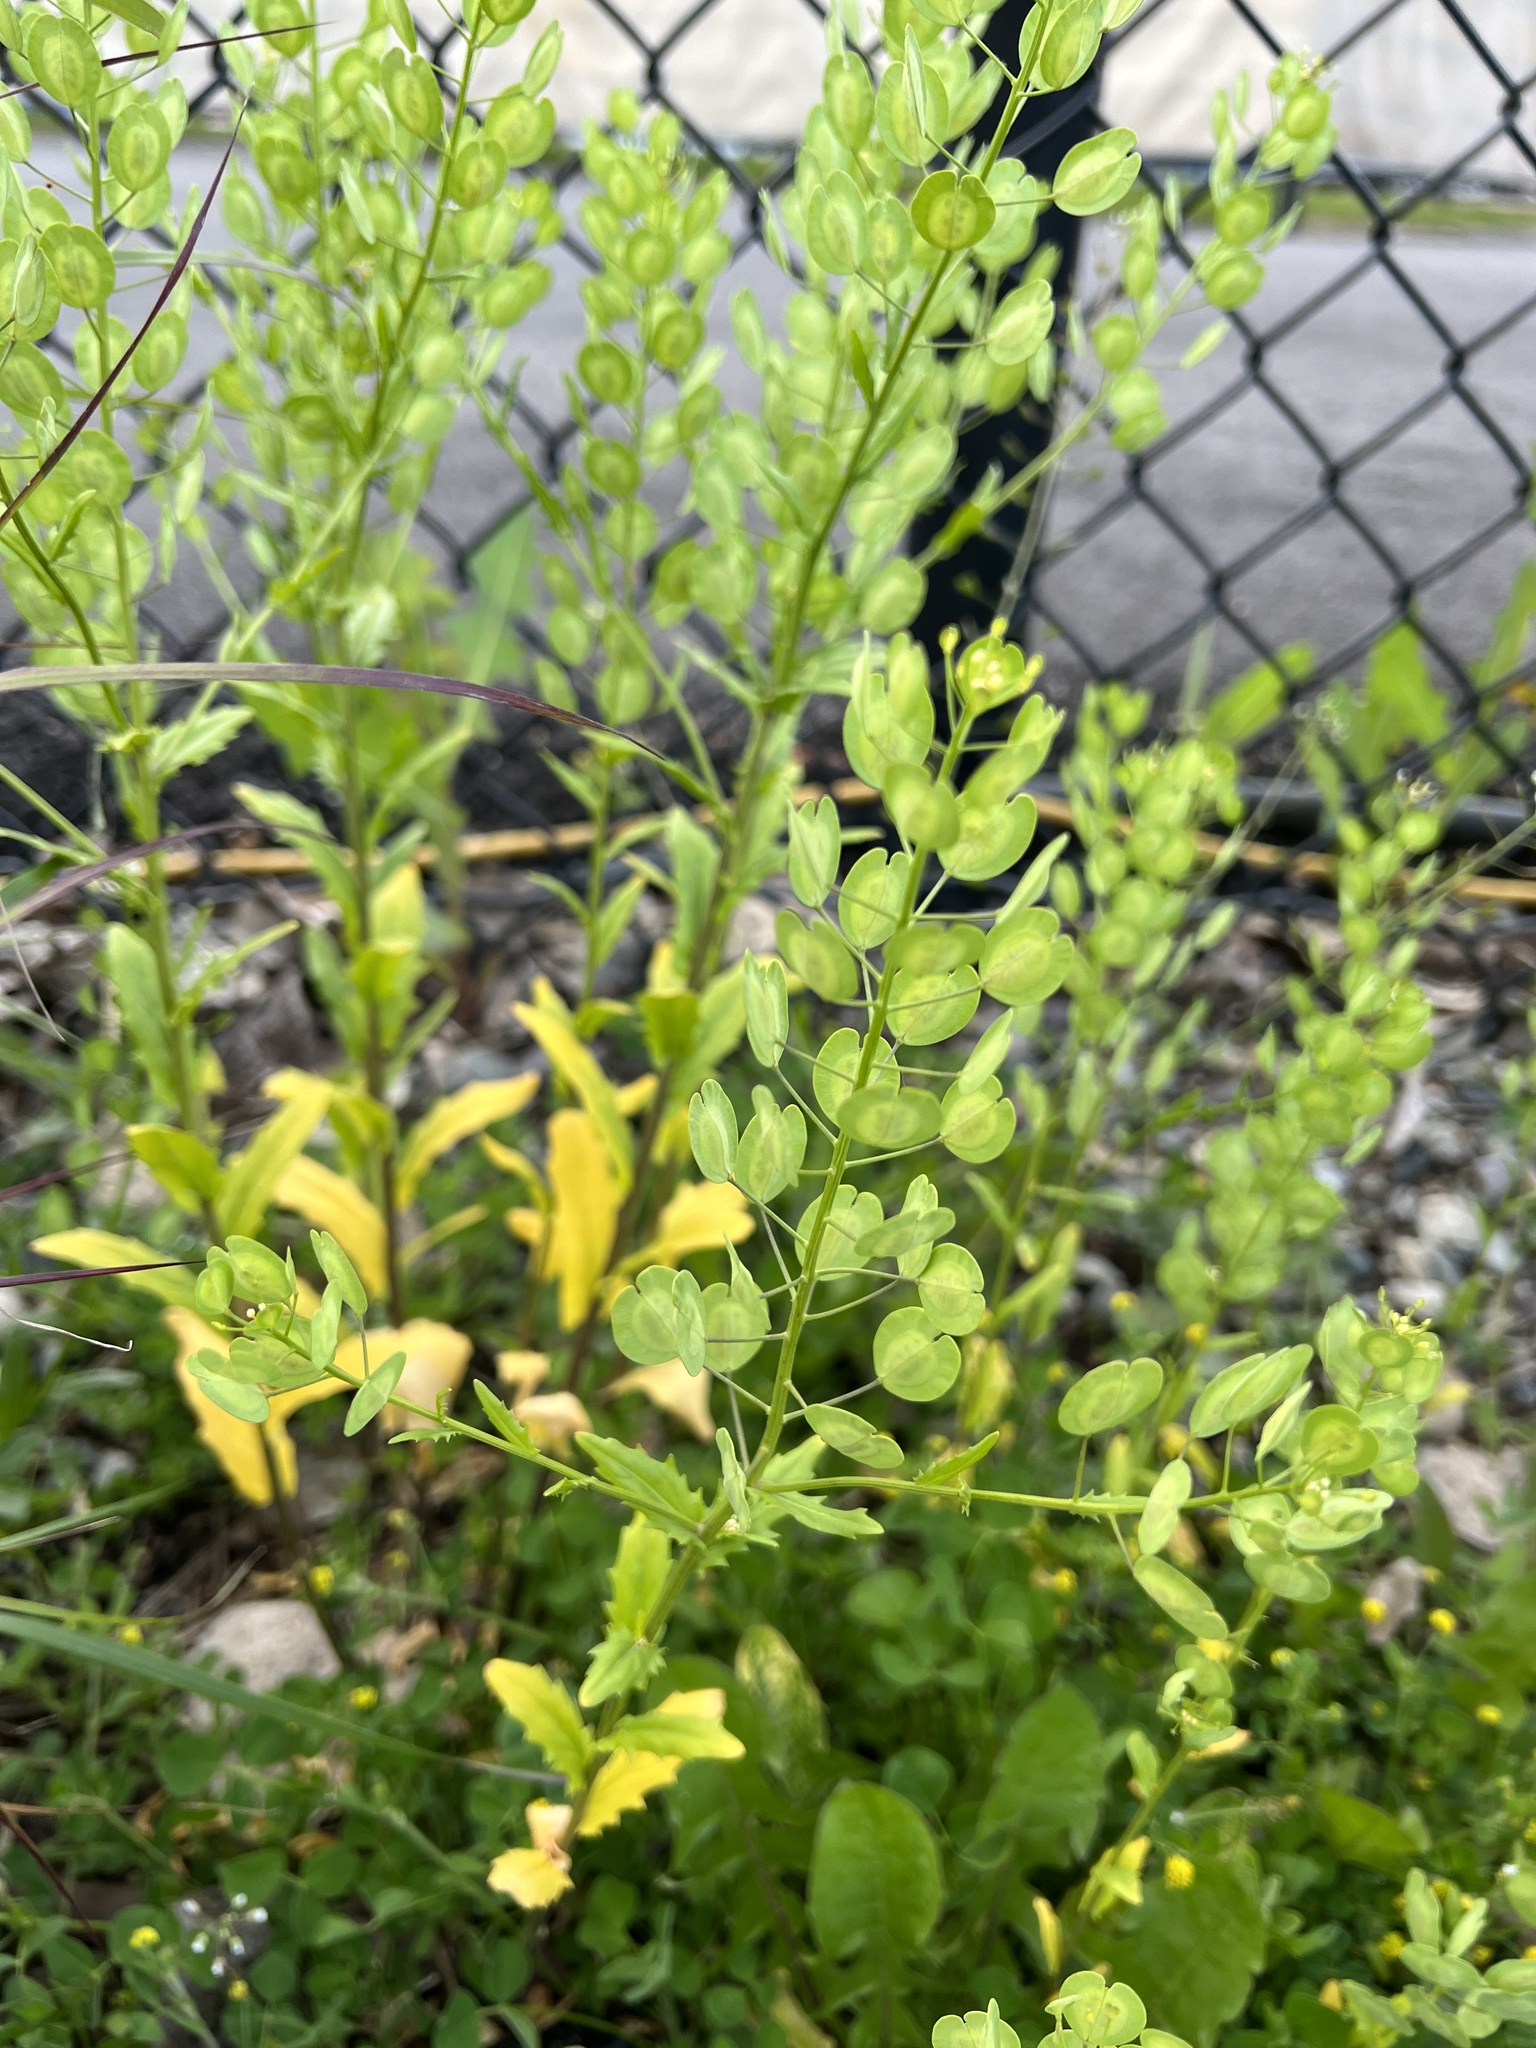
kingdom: Plantae
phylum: Tracheophyta
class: Magnoliopsida
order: Brassicales
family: Brassicaceae
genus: Thlaspi
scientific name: Thlaspi arvense
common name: Field pennycress
